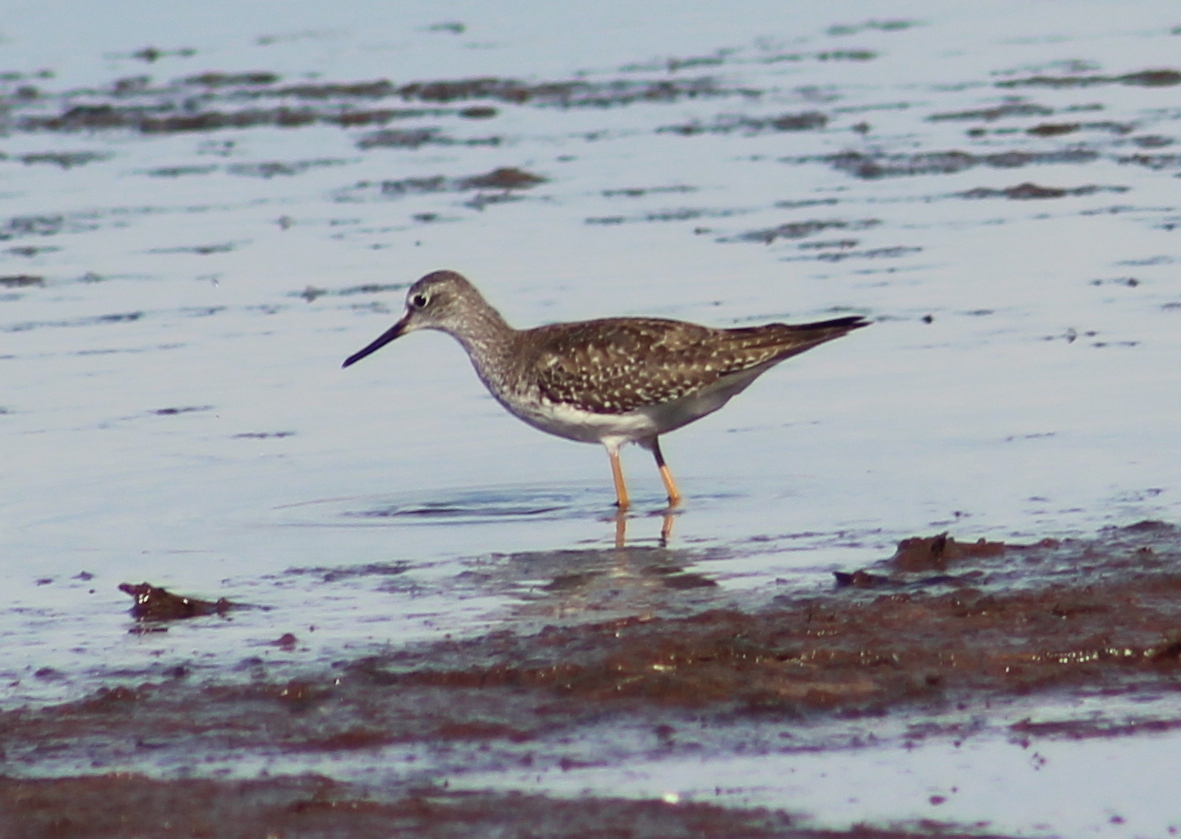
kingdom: Animalia
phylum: Chordata
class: Aves
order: Charadriiformes
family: Scolopacidae
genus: Tringa
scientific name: Tringa flavipes
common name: Lesser yellowlegs
